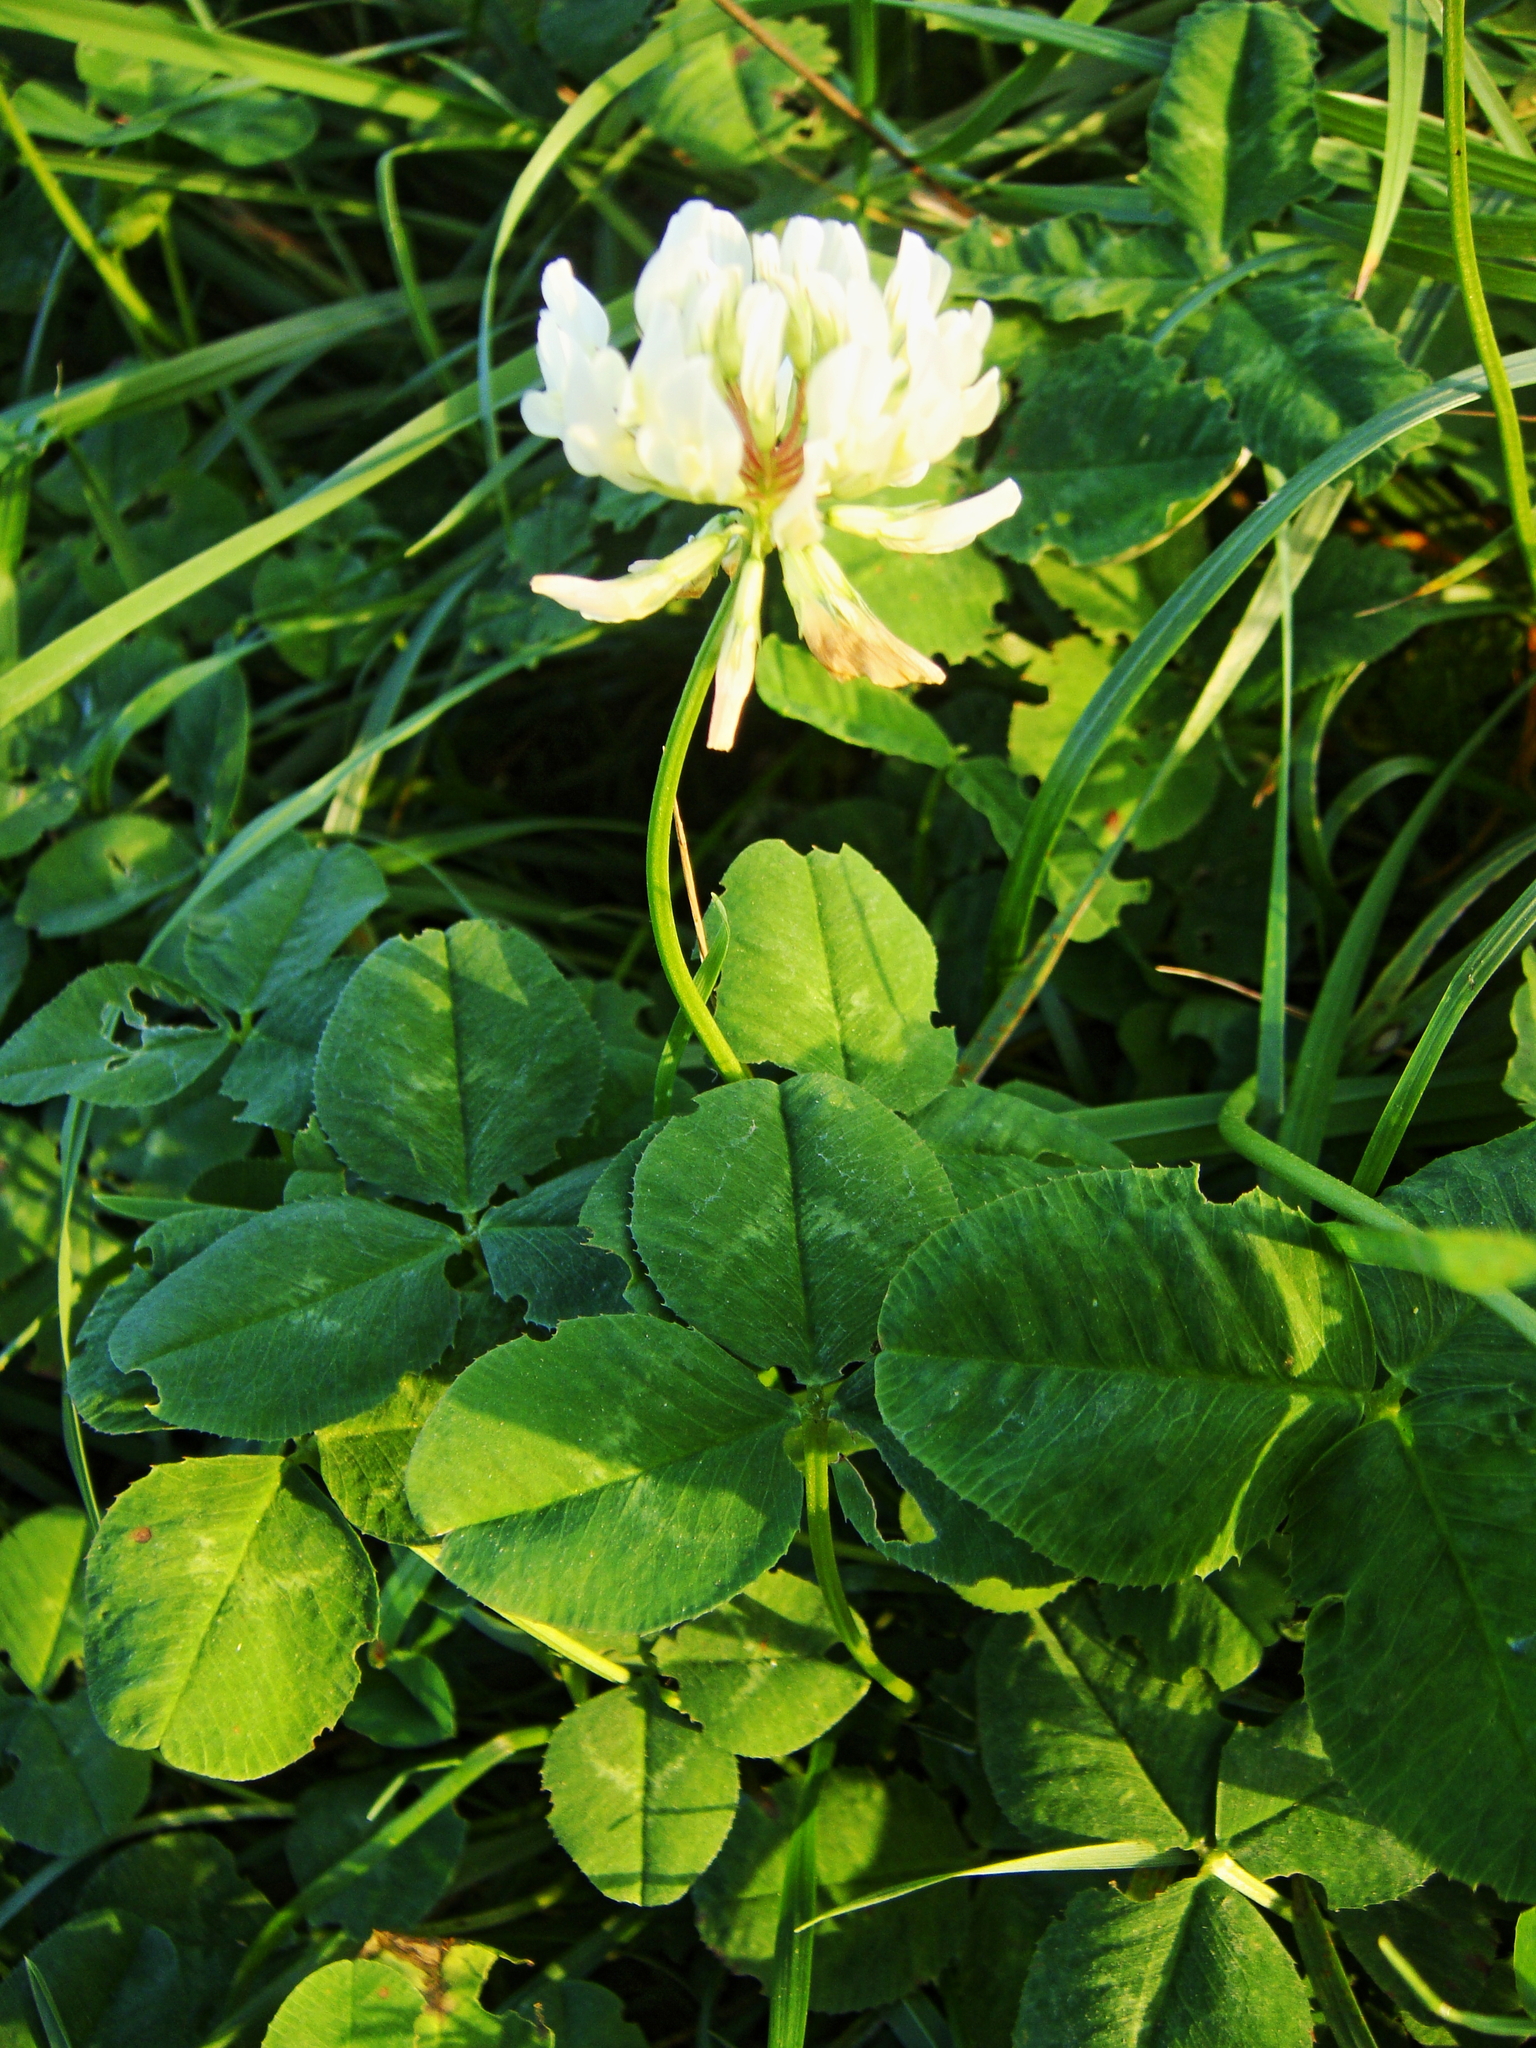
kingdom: Plantae
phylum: Tracheophyta
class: Magnoliopsida
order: Fabales
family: Fabaceae
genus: Trifolium
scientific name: Trifolium repens
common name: White clover
